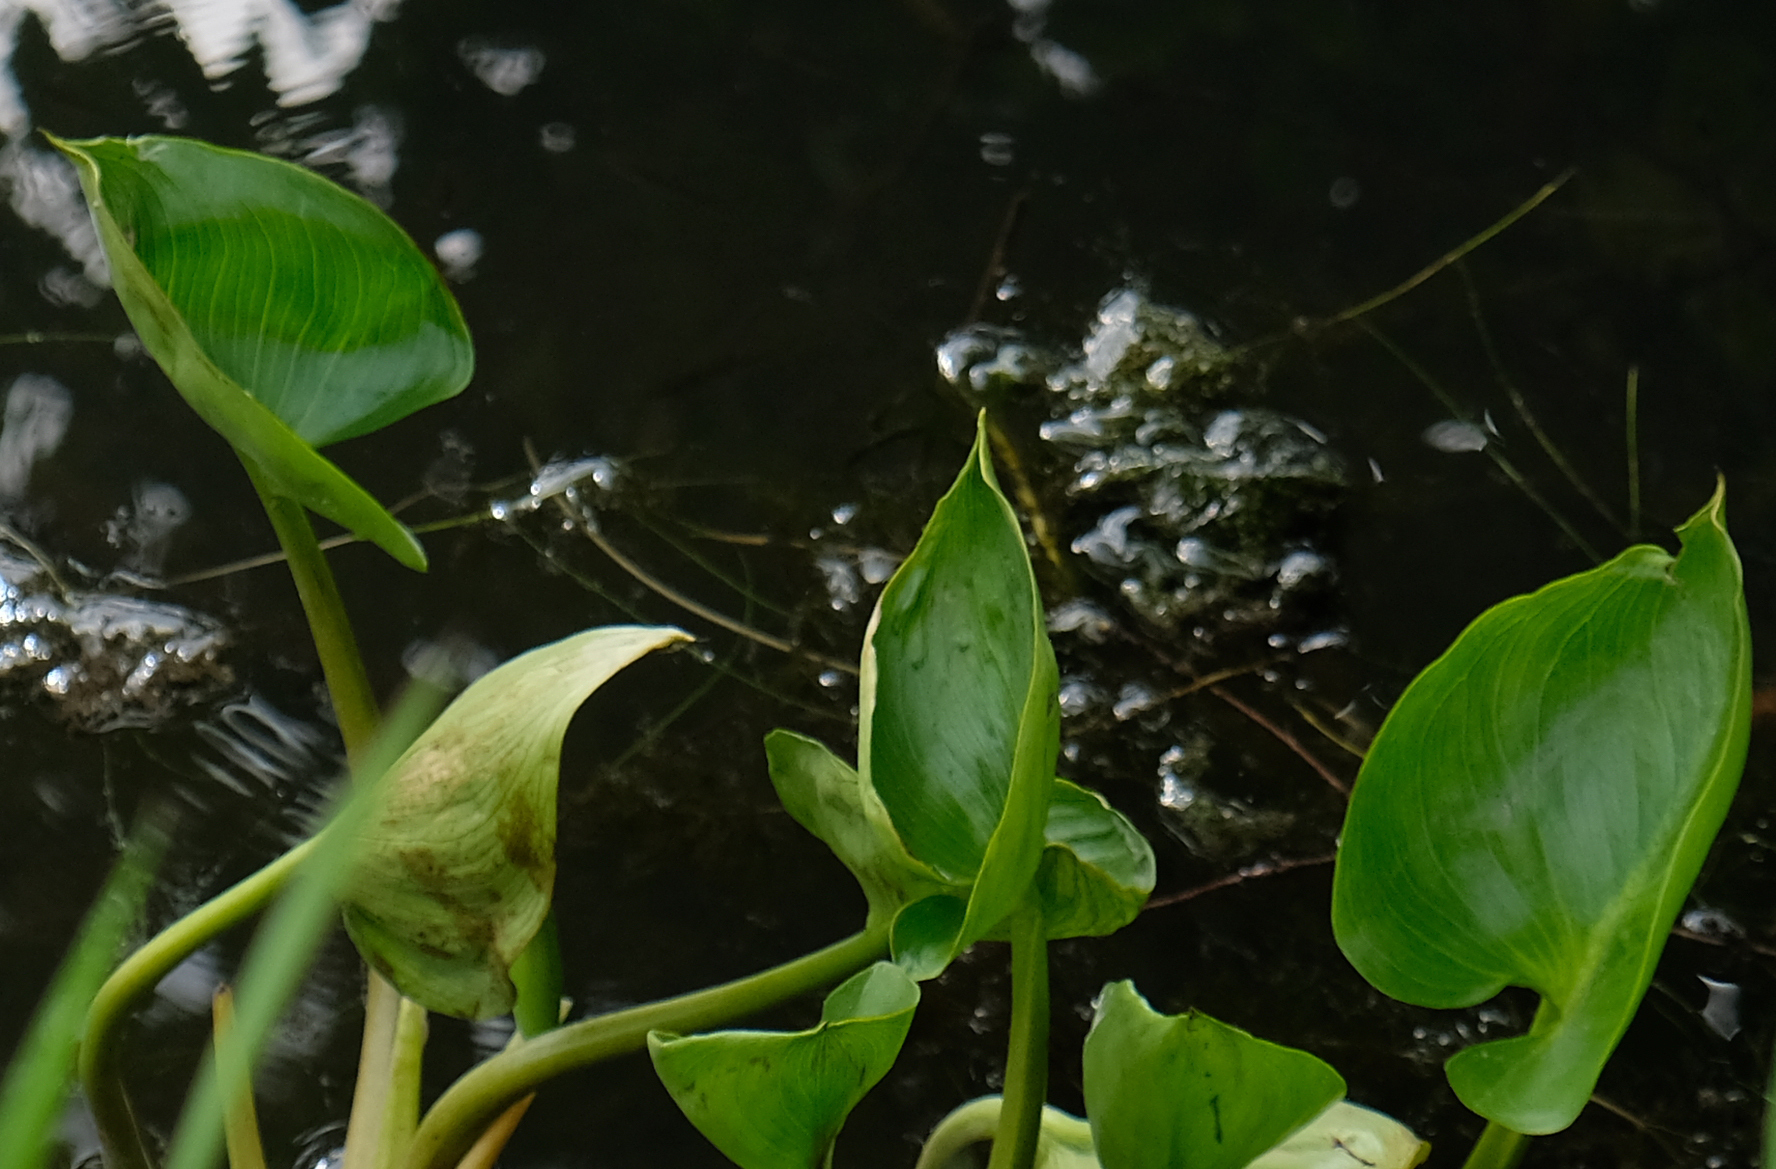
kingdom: Plantae
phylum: Tracheophyta
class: Liliopsida
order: Alismatales
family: Araceae
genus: Calla
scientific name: Calla palustris
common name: Bog arum
